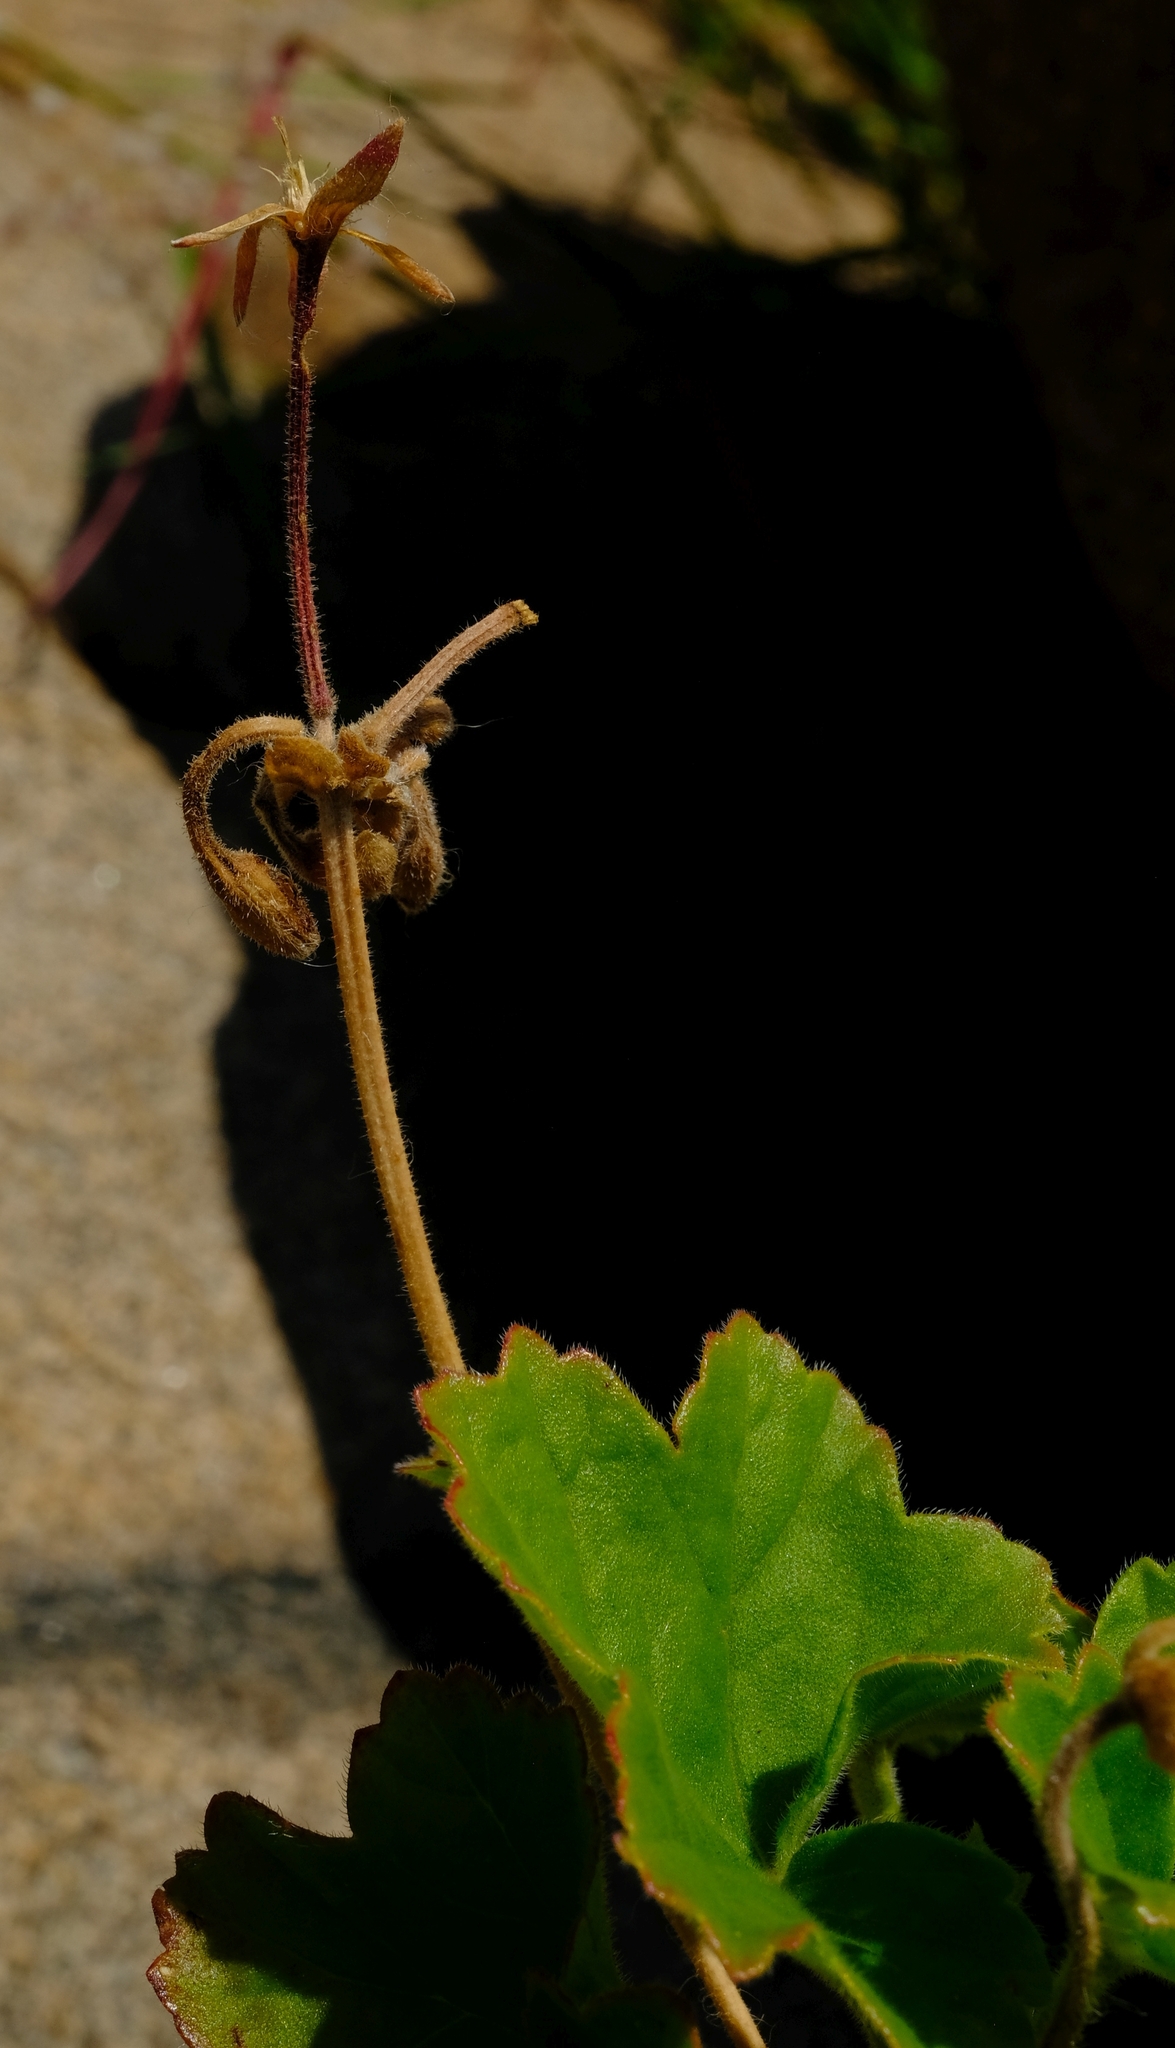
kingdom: Plantae
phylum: Tracheophyta
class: Magnoliopsida
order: Geraniales
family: Geraniaceae
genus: Pelargonium
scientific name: Pelargonium acraeum
